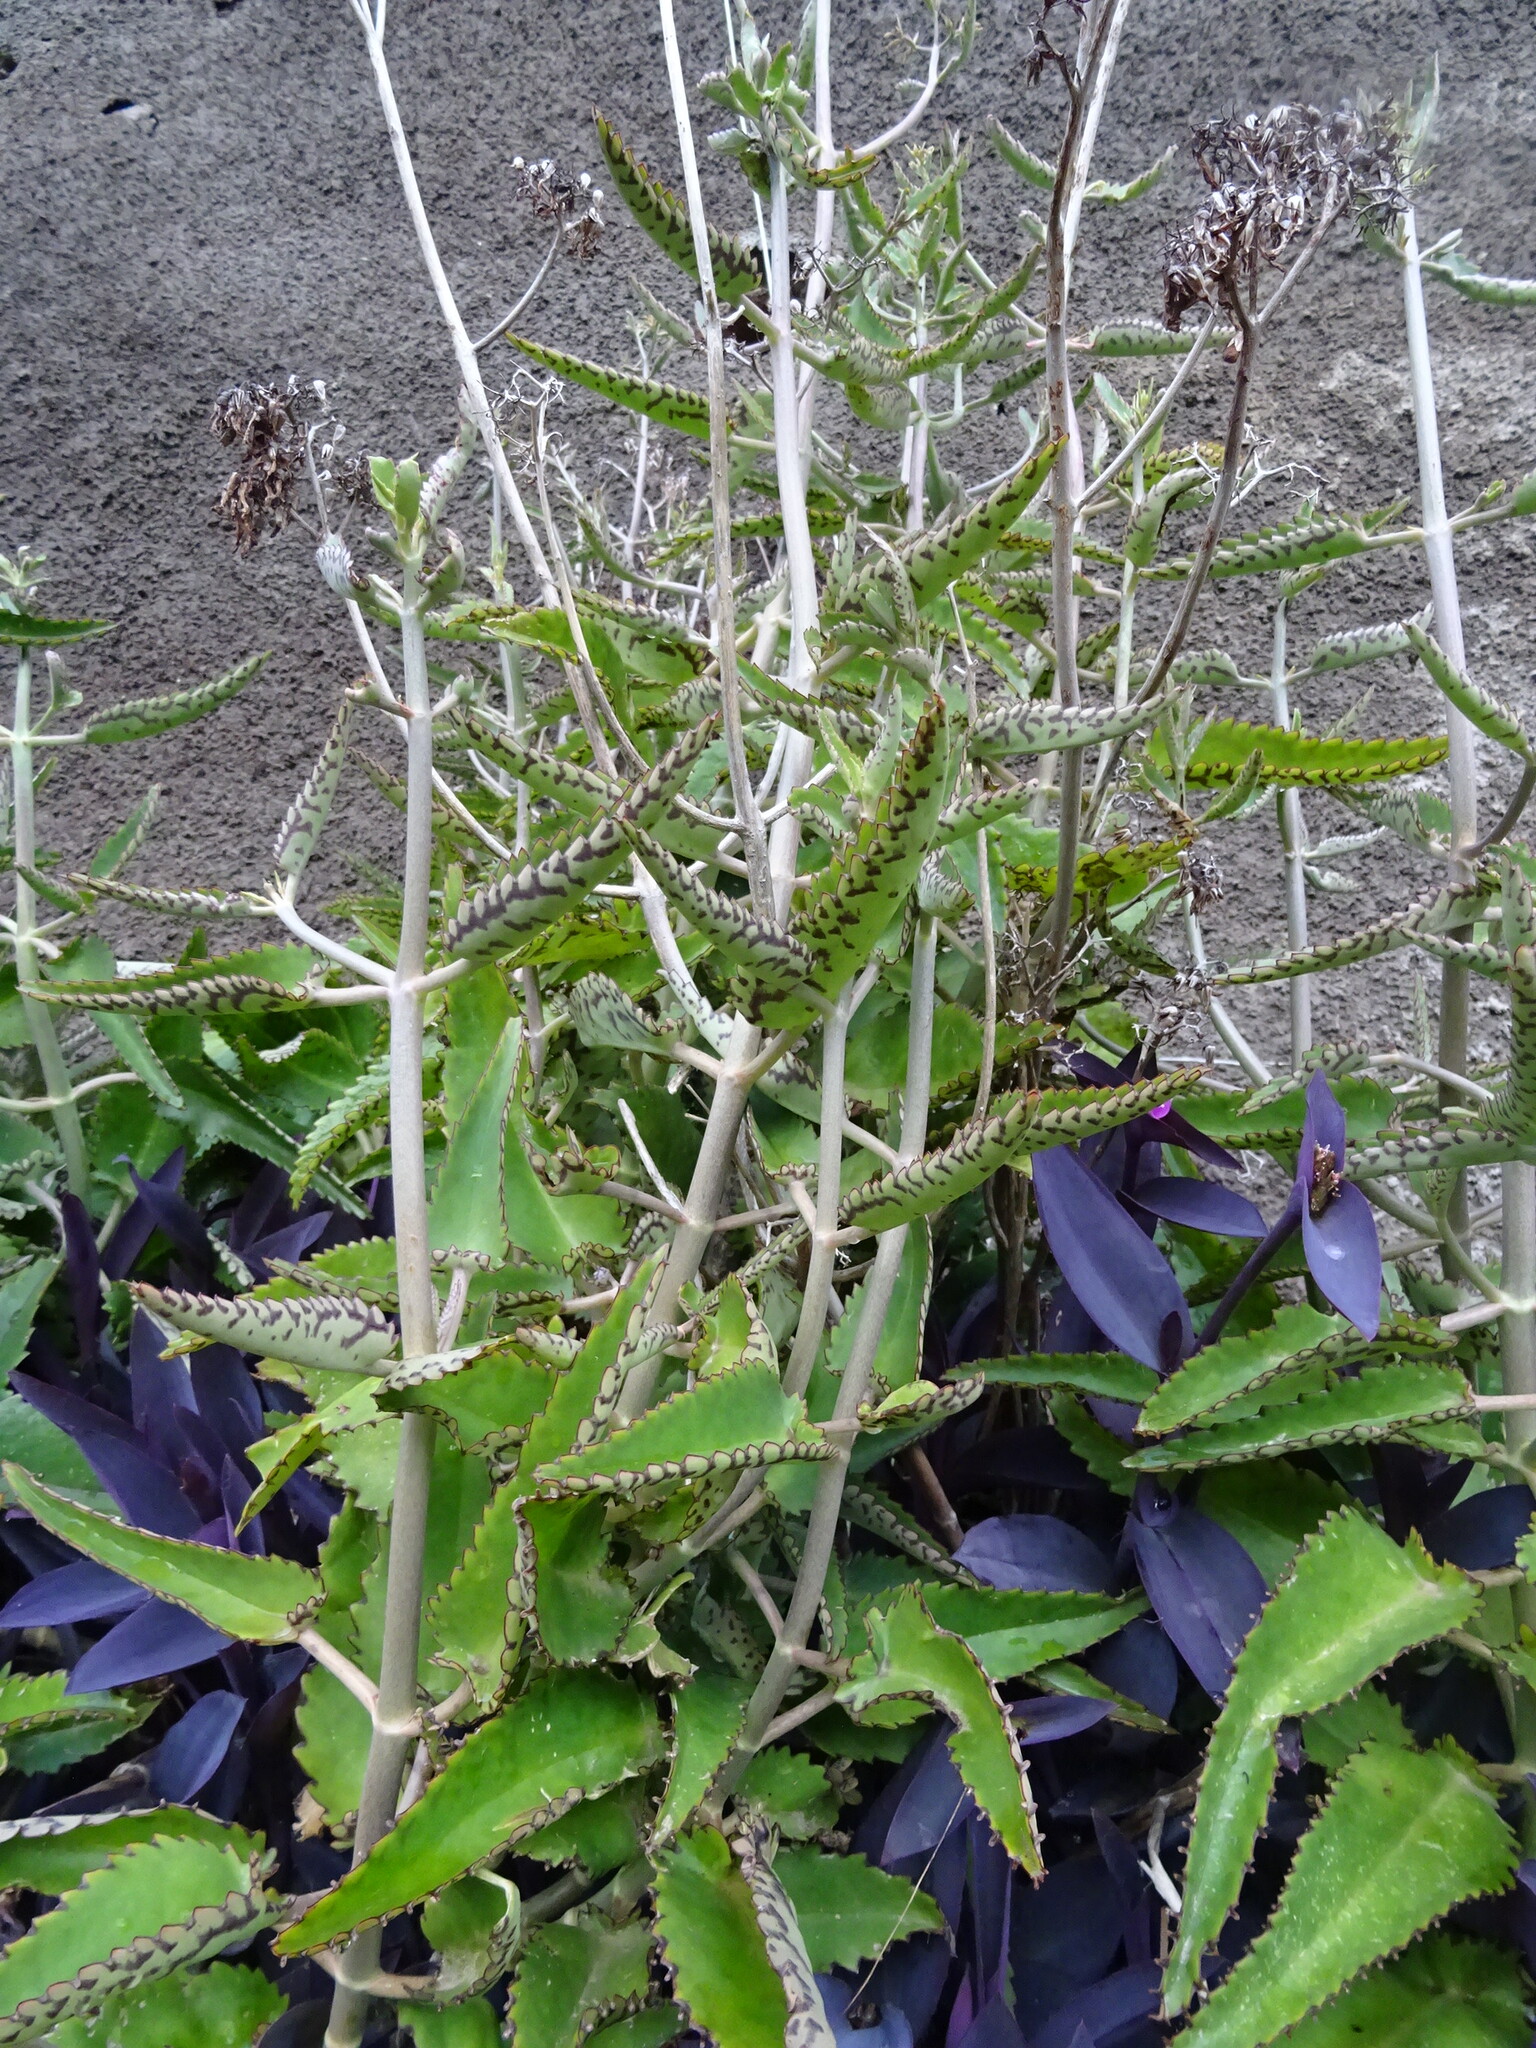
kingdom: Plantae
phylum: Tracheophyta
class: Magnoliopsida
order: Saxifragales
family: Crassulaceae
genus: Kalanchoe
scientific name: Kalanchoe daigremontiana
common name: Devil's backbone
